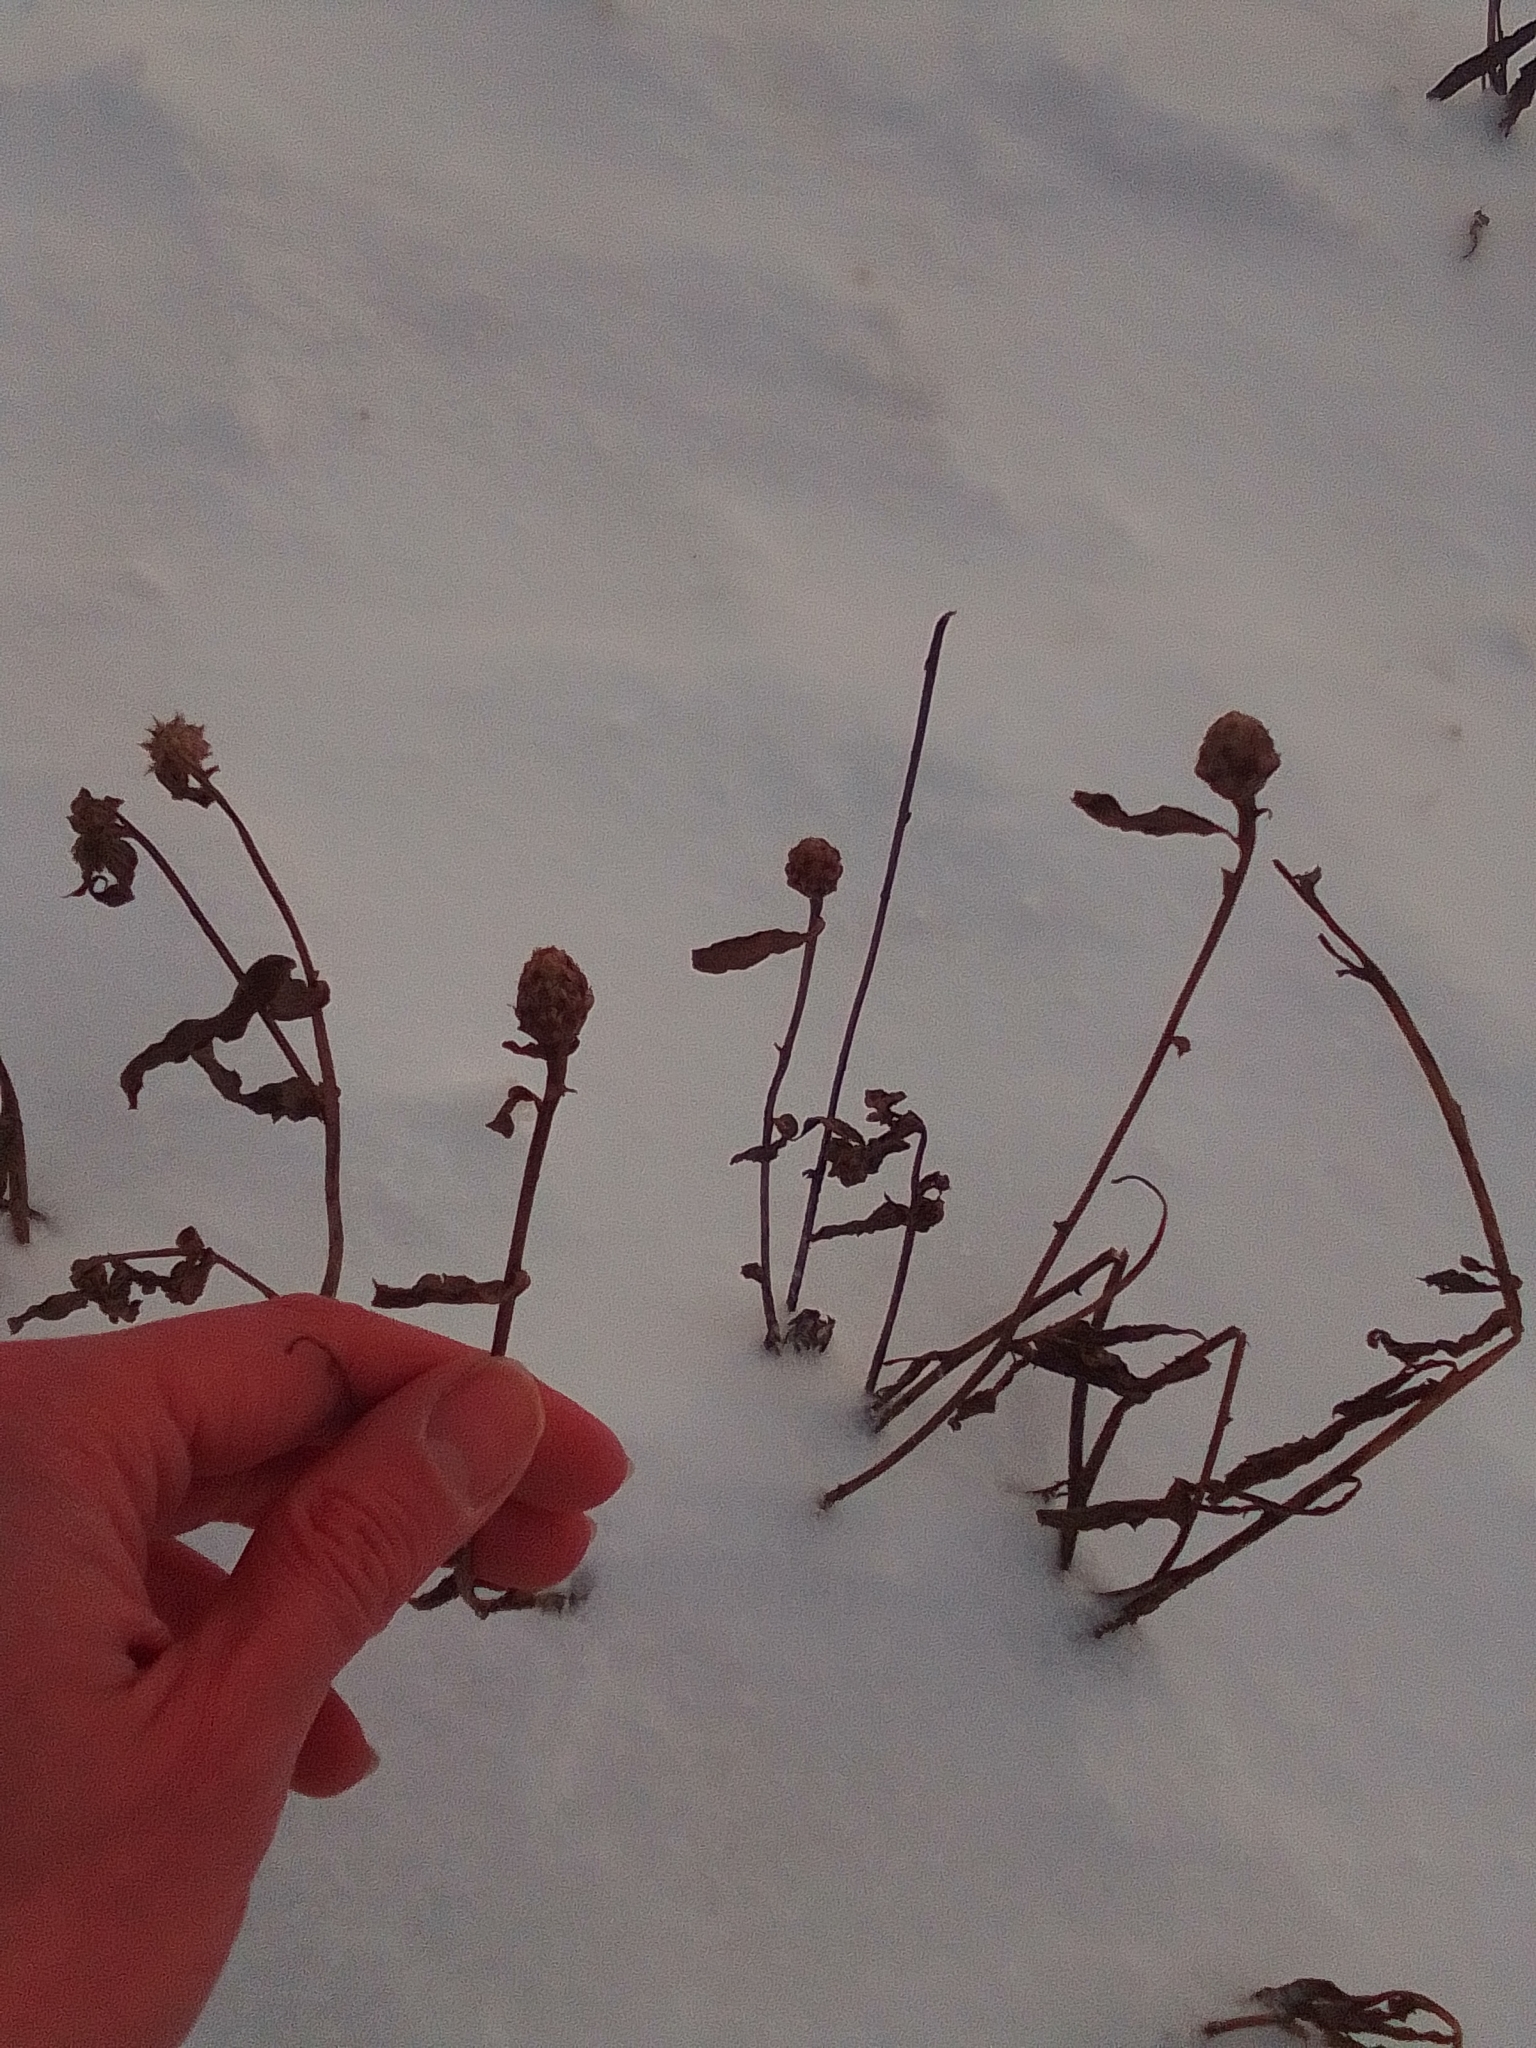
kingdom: Plantae
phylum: Tracheophyta
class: Magnoliopsida
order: Asterales
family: Asteraceae
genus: Centaurea
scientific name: Centaurea jacea
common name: Brown knapweed
